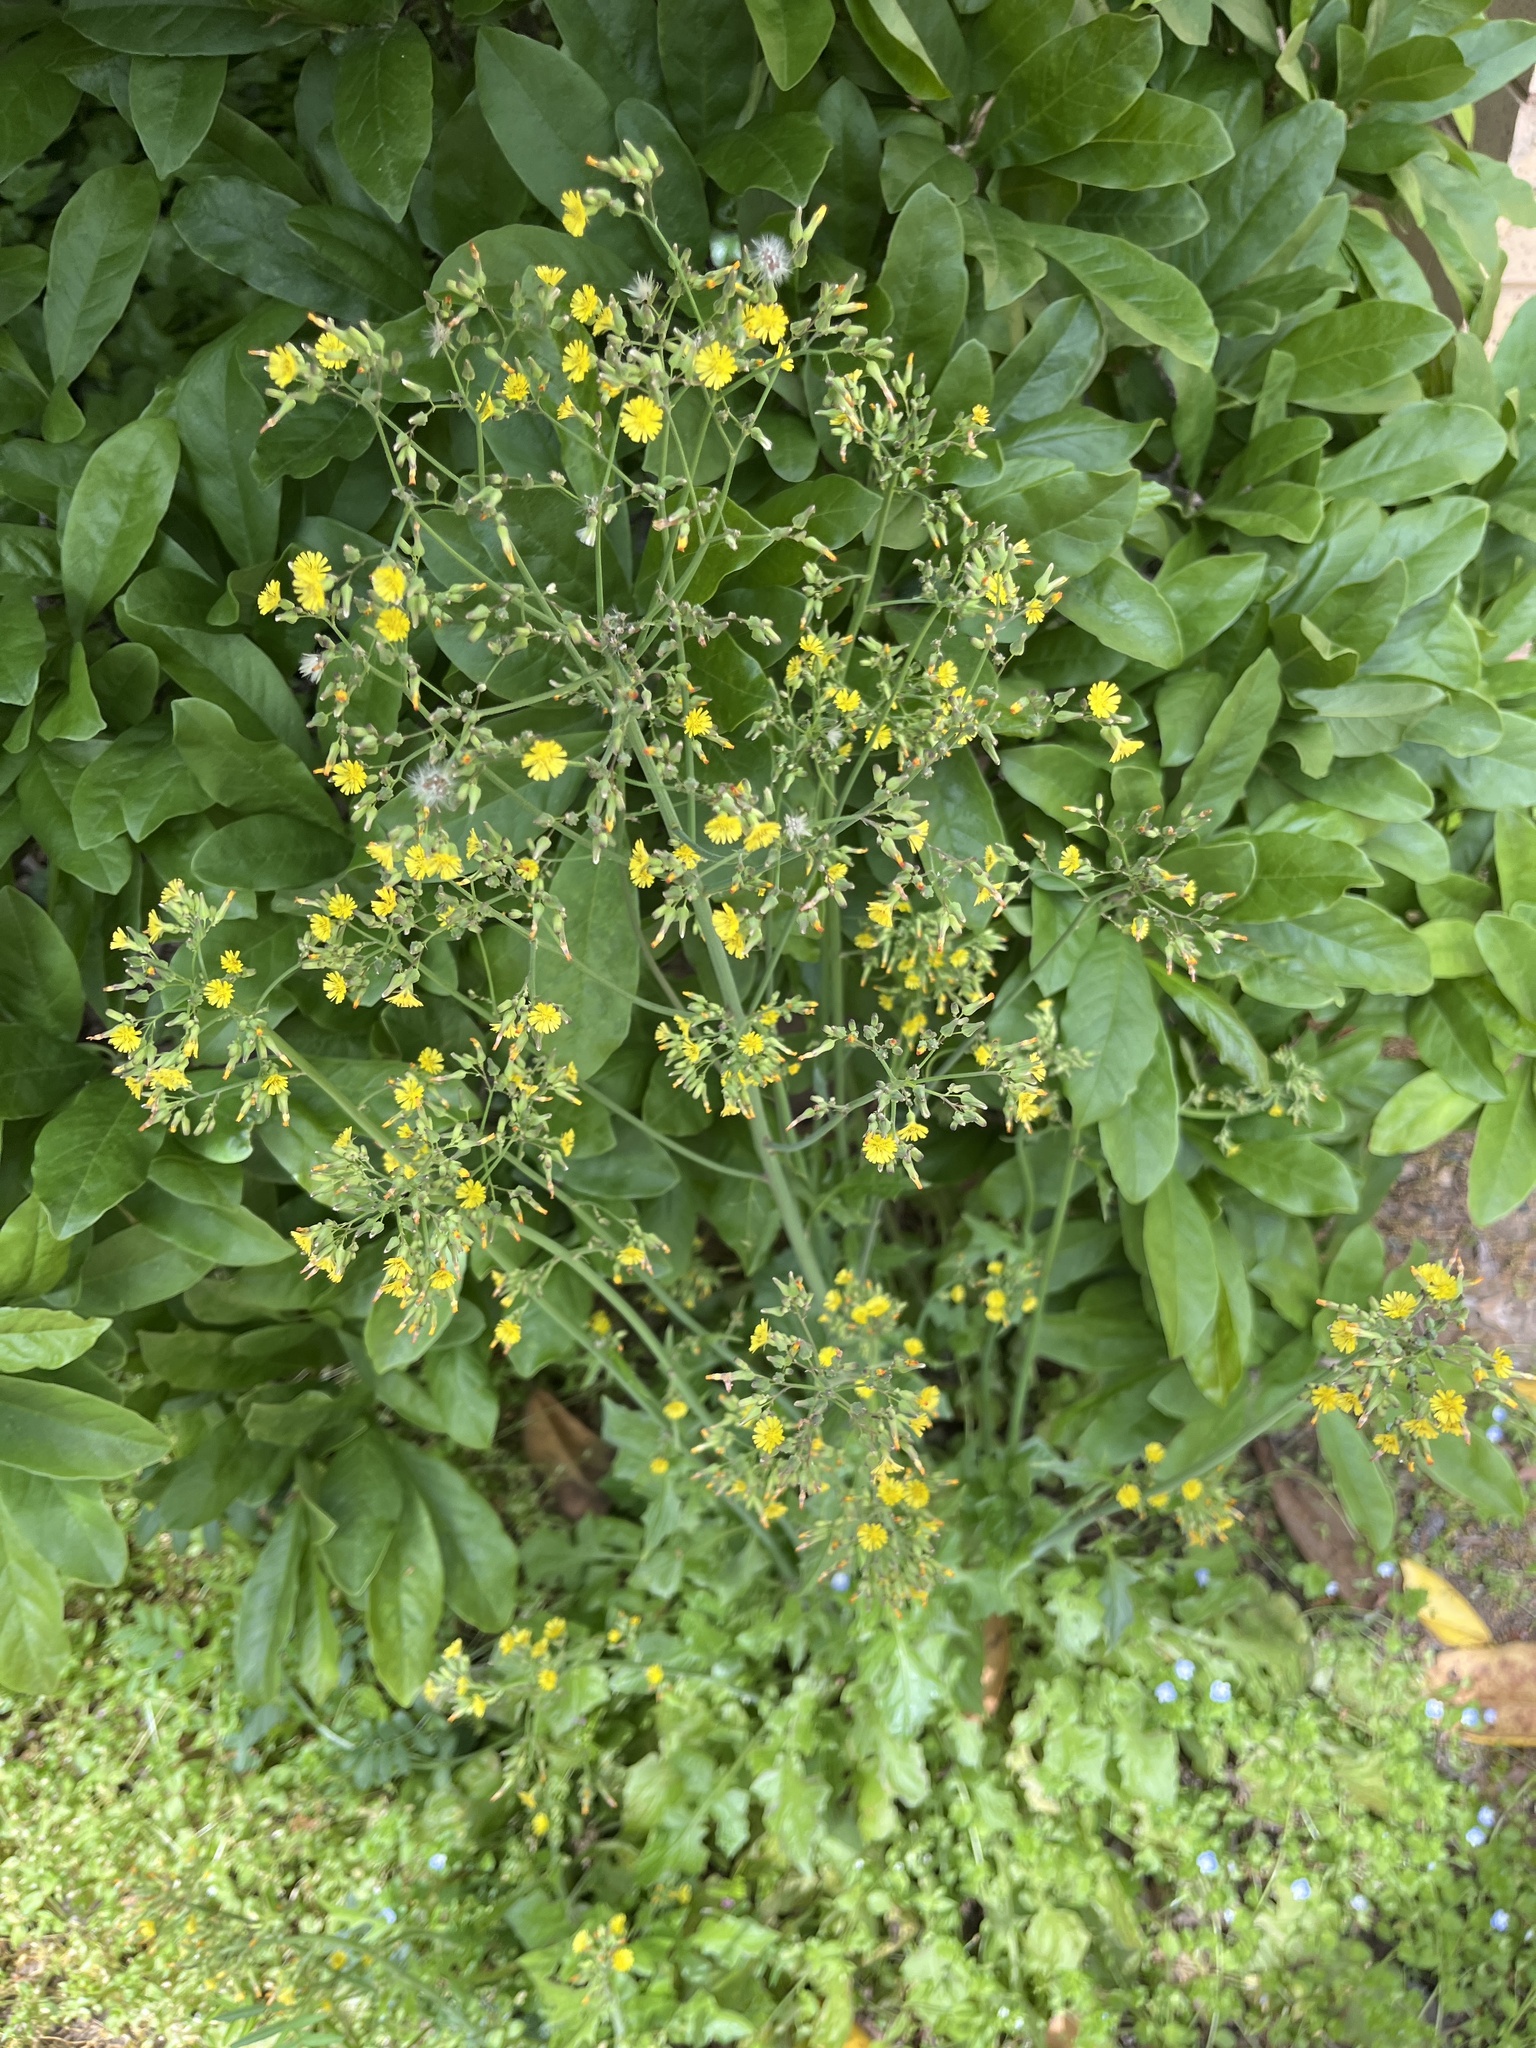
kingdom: Plantae
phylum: Tracheophyta
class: Magnoliopsida
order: Asterales
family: Asteraceae
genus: Youngia
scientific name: Youngia japonica
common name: Oriental false hawksbeard
